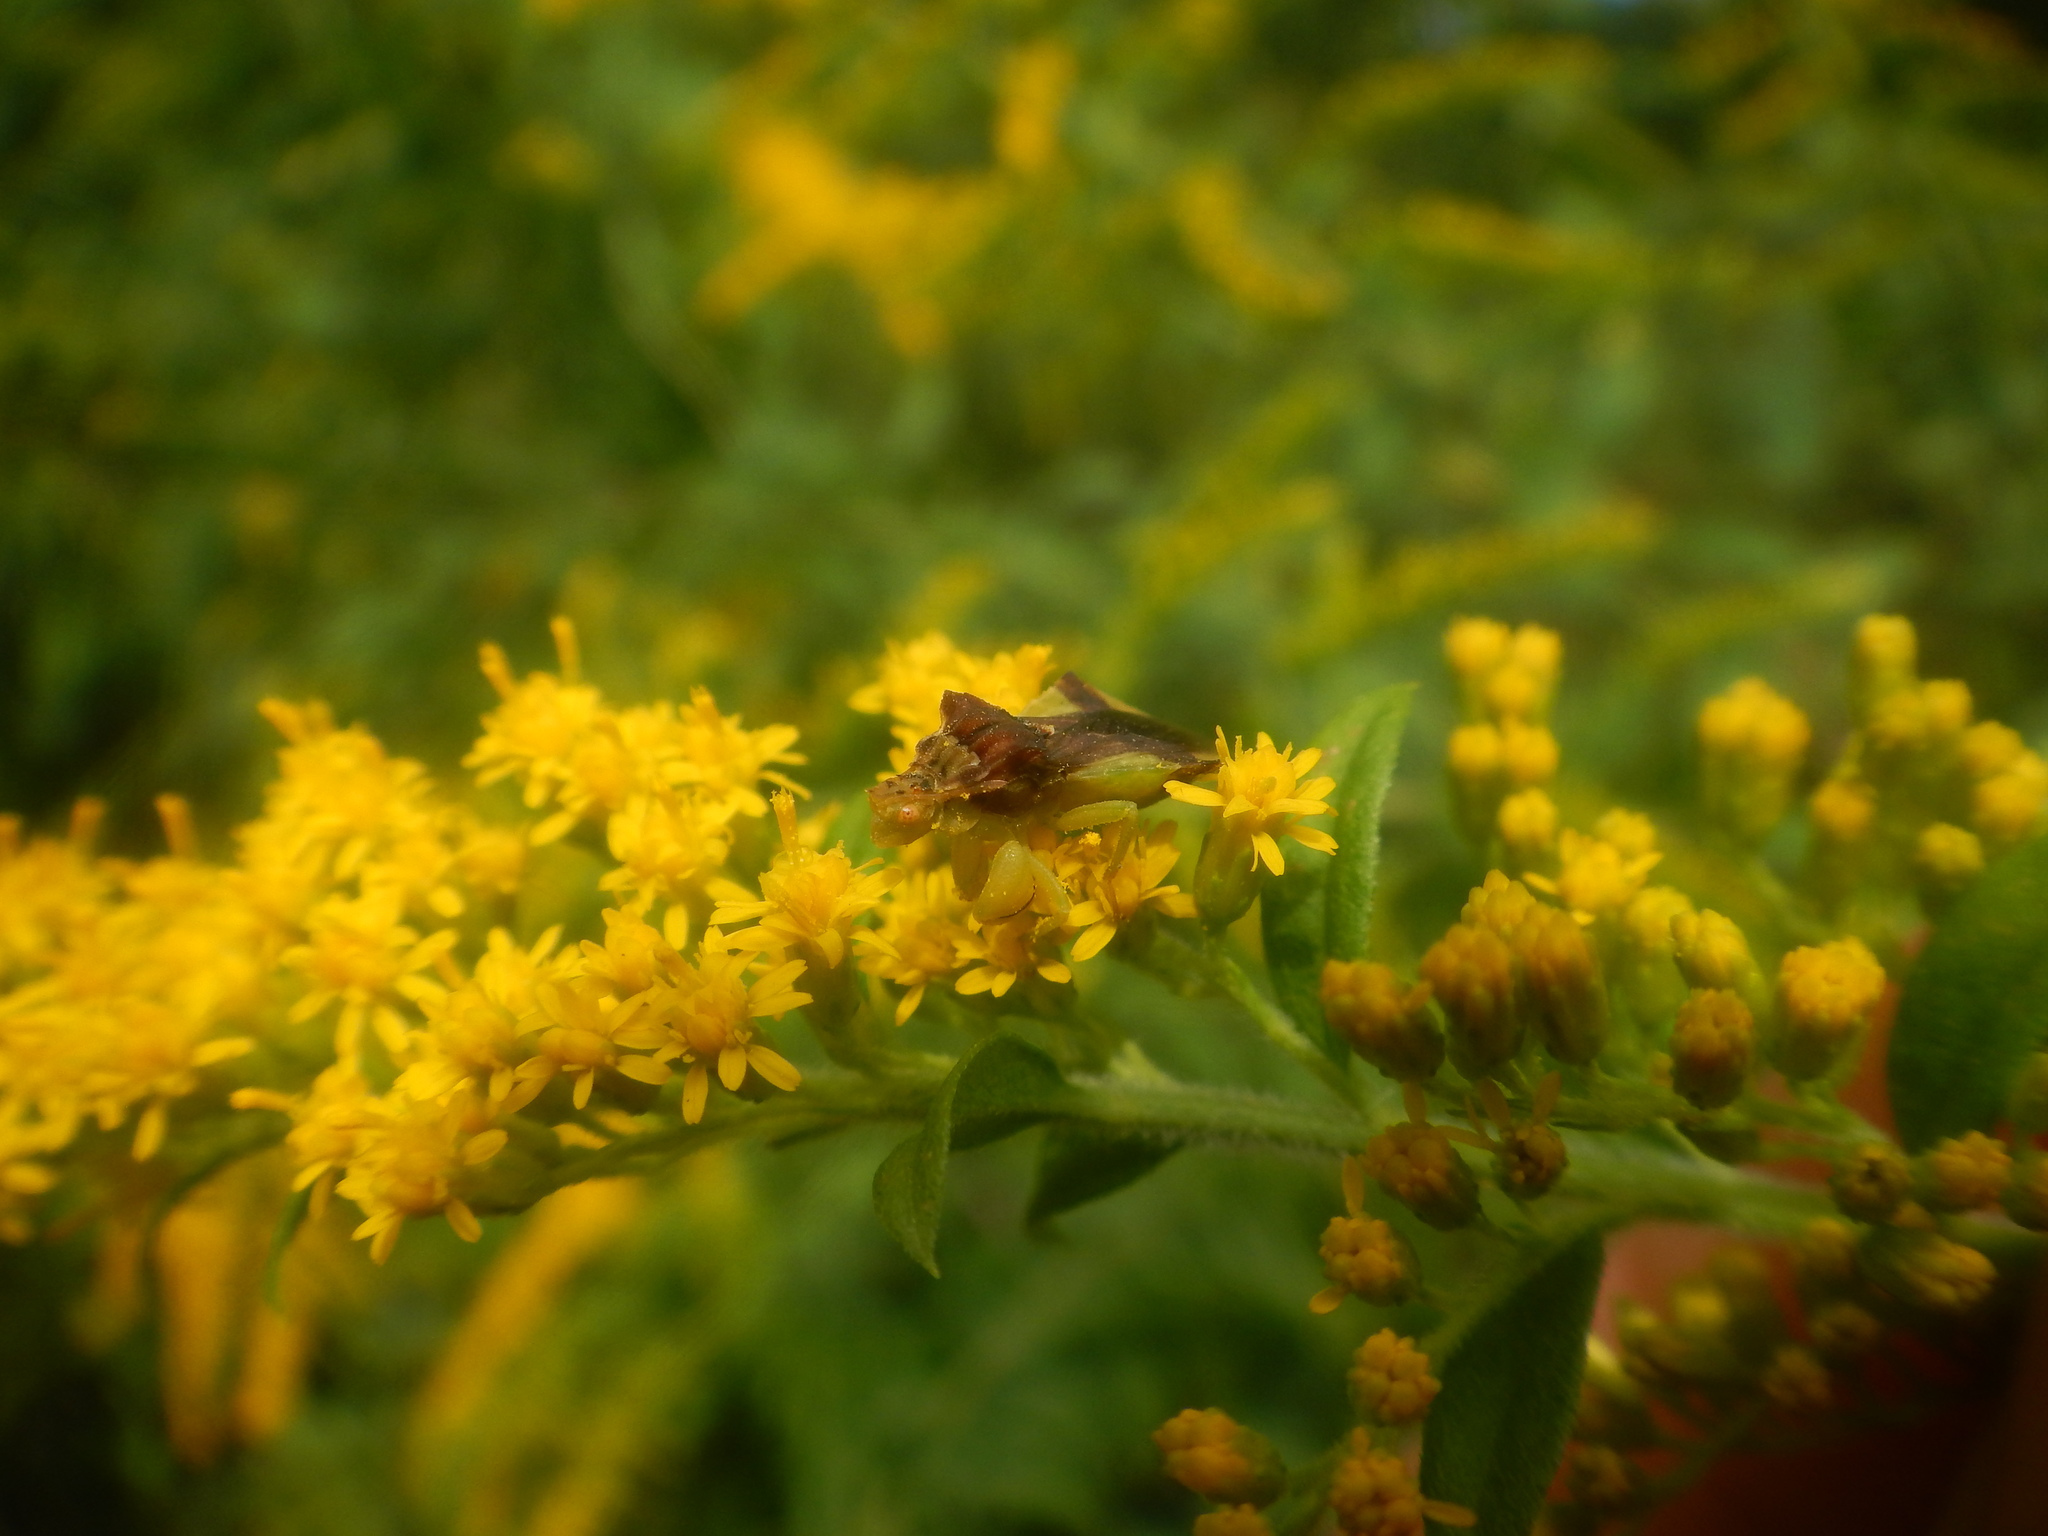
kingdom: Animalia
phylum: Arthropoda
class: Insecta
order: Hemiptera
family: Reduviidae
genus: Phymata
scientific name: Phymata pennsylvanica
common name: Pennsylvania ambush bug
